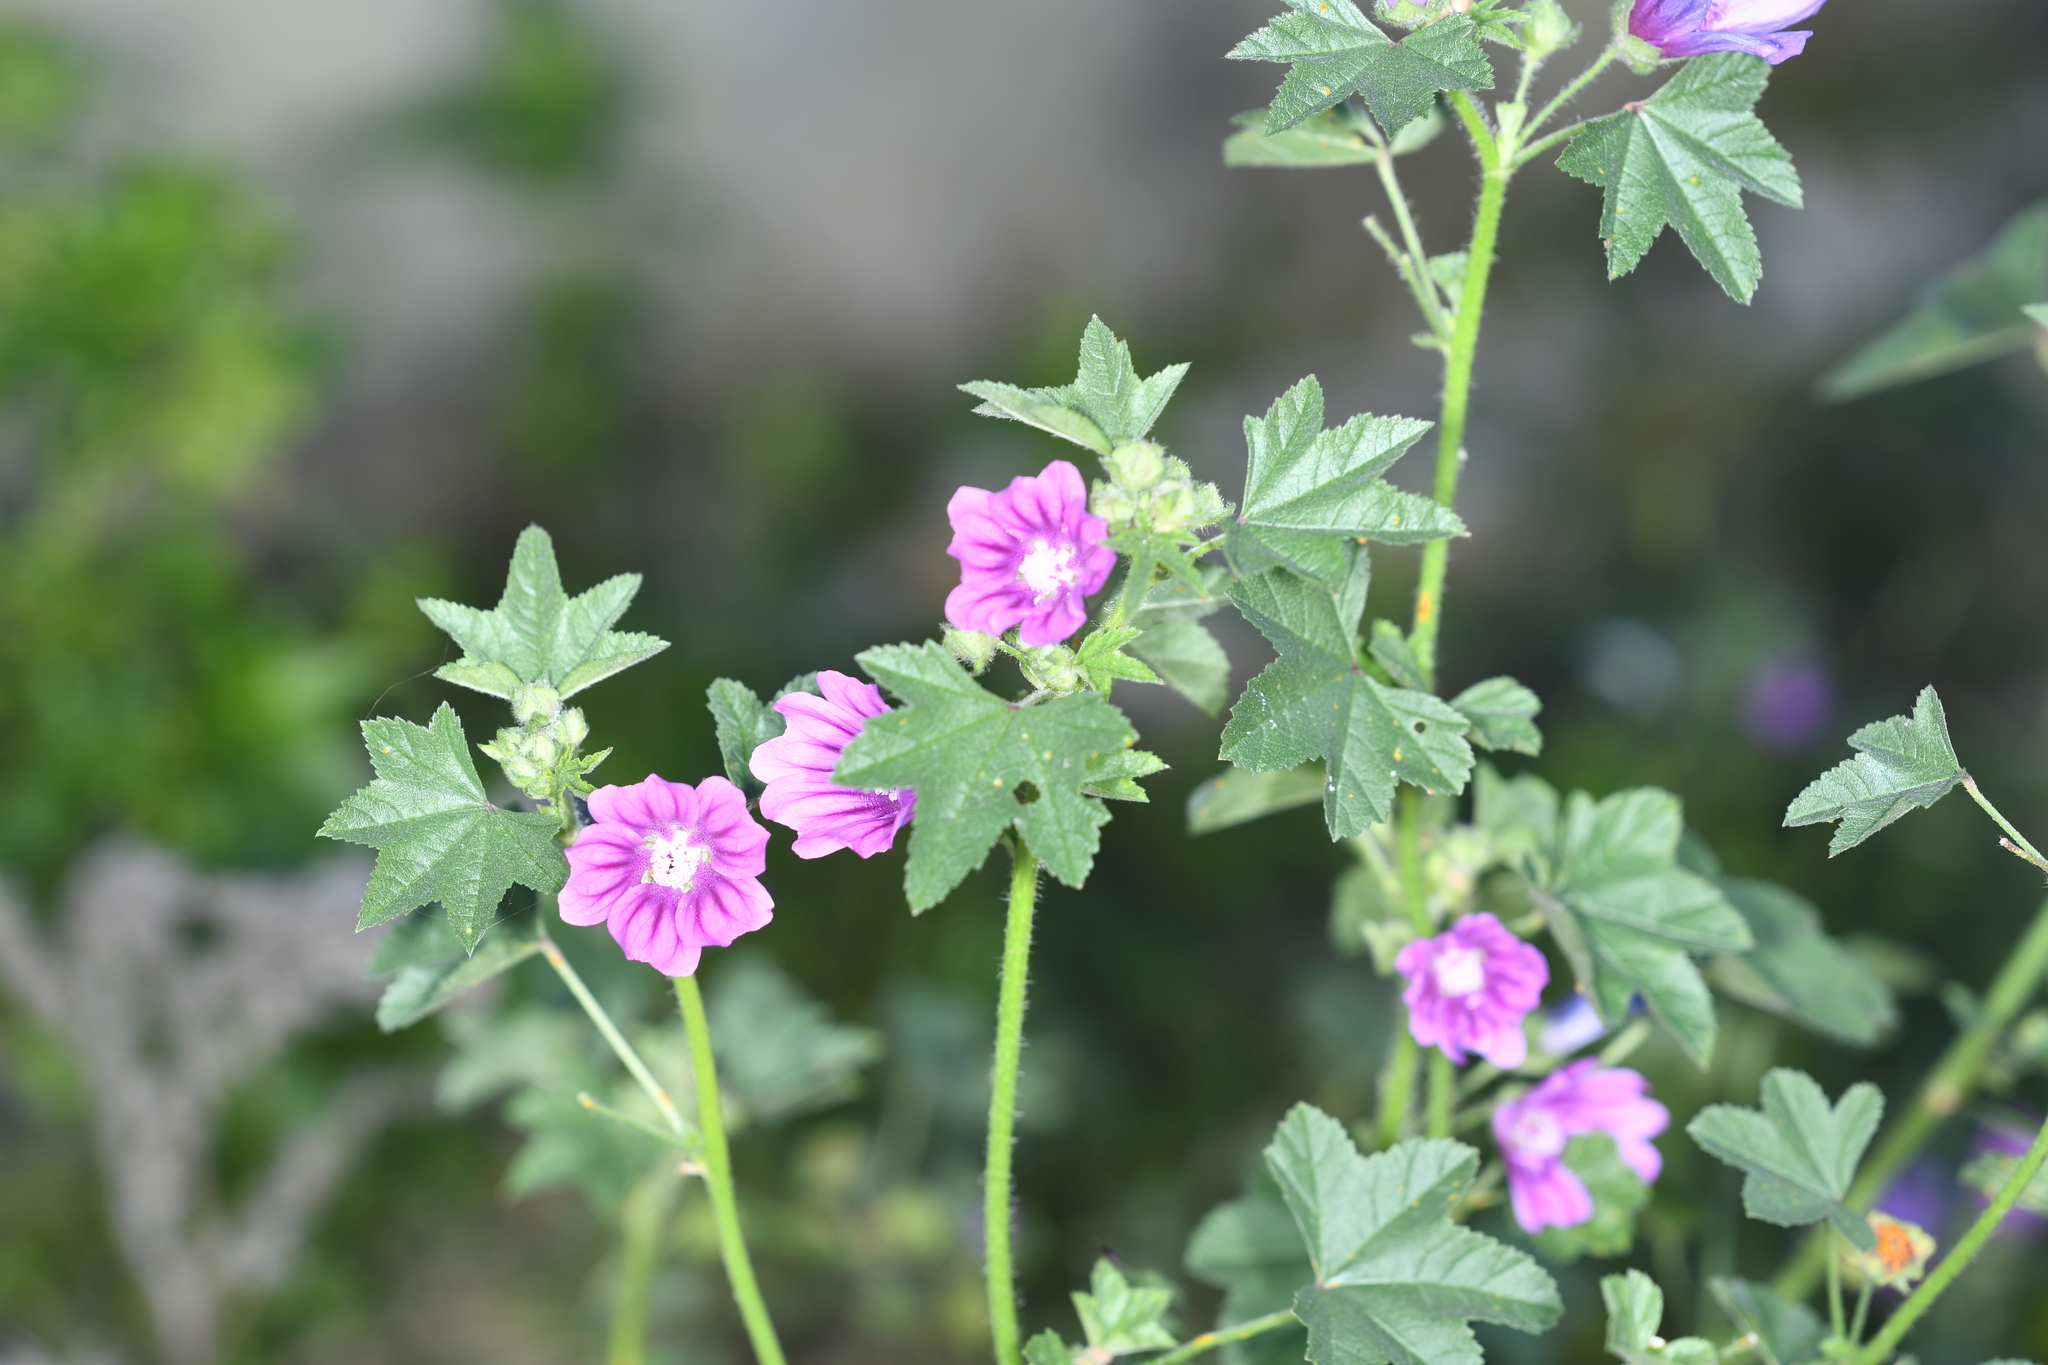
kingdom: Plantae
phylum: Tracheophyta
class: Magnoliopsida
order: Malvales
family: Malvaceae
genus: Malva
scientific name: Malva sylvestris
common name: Common mallow
